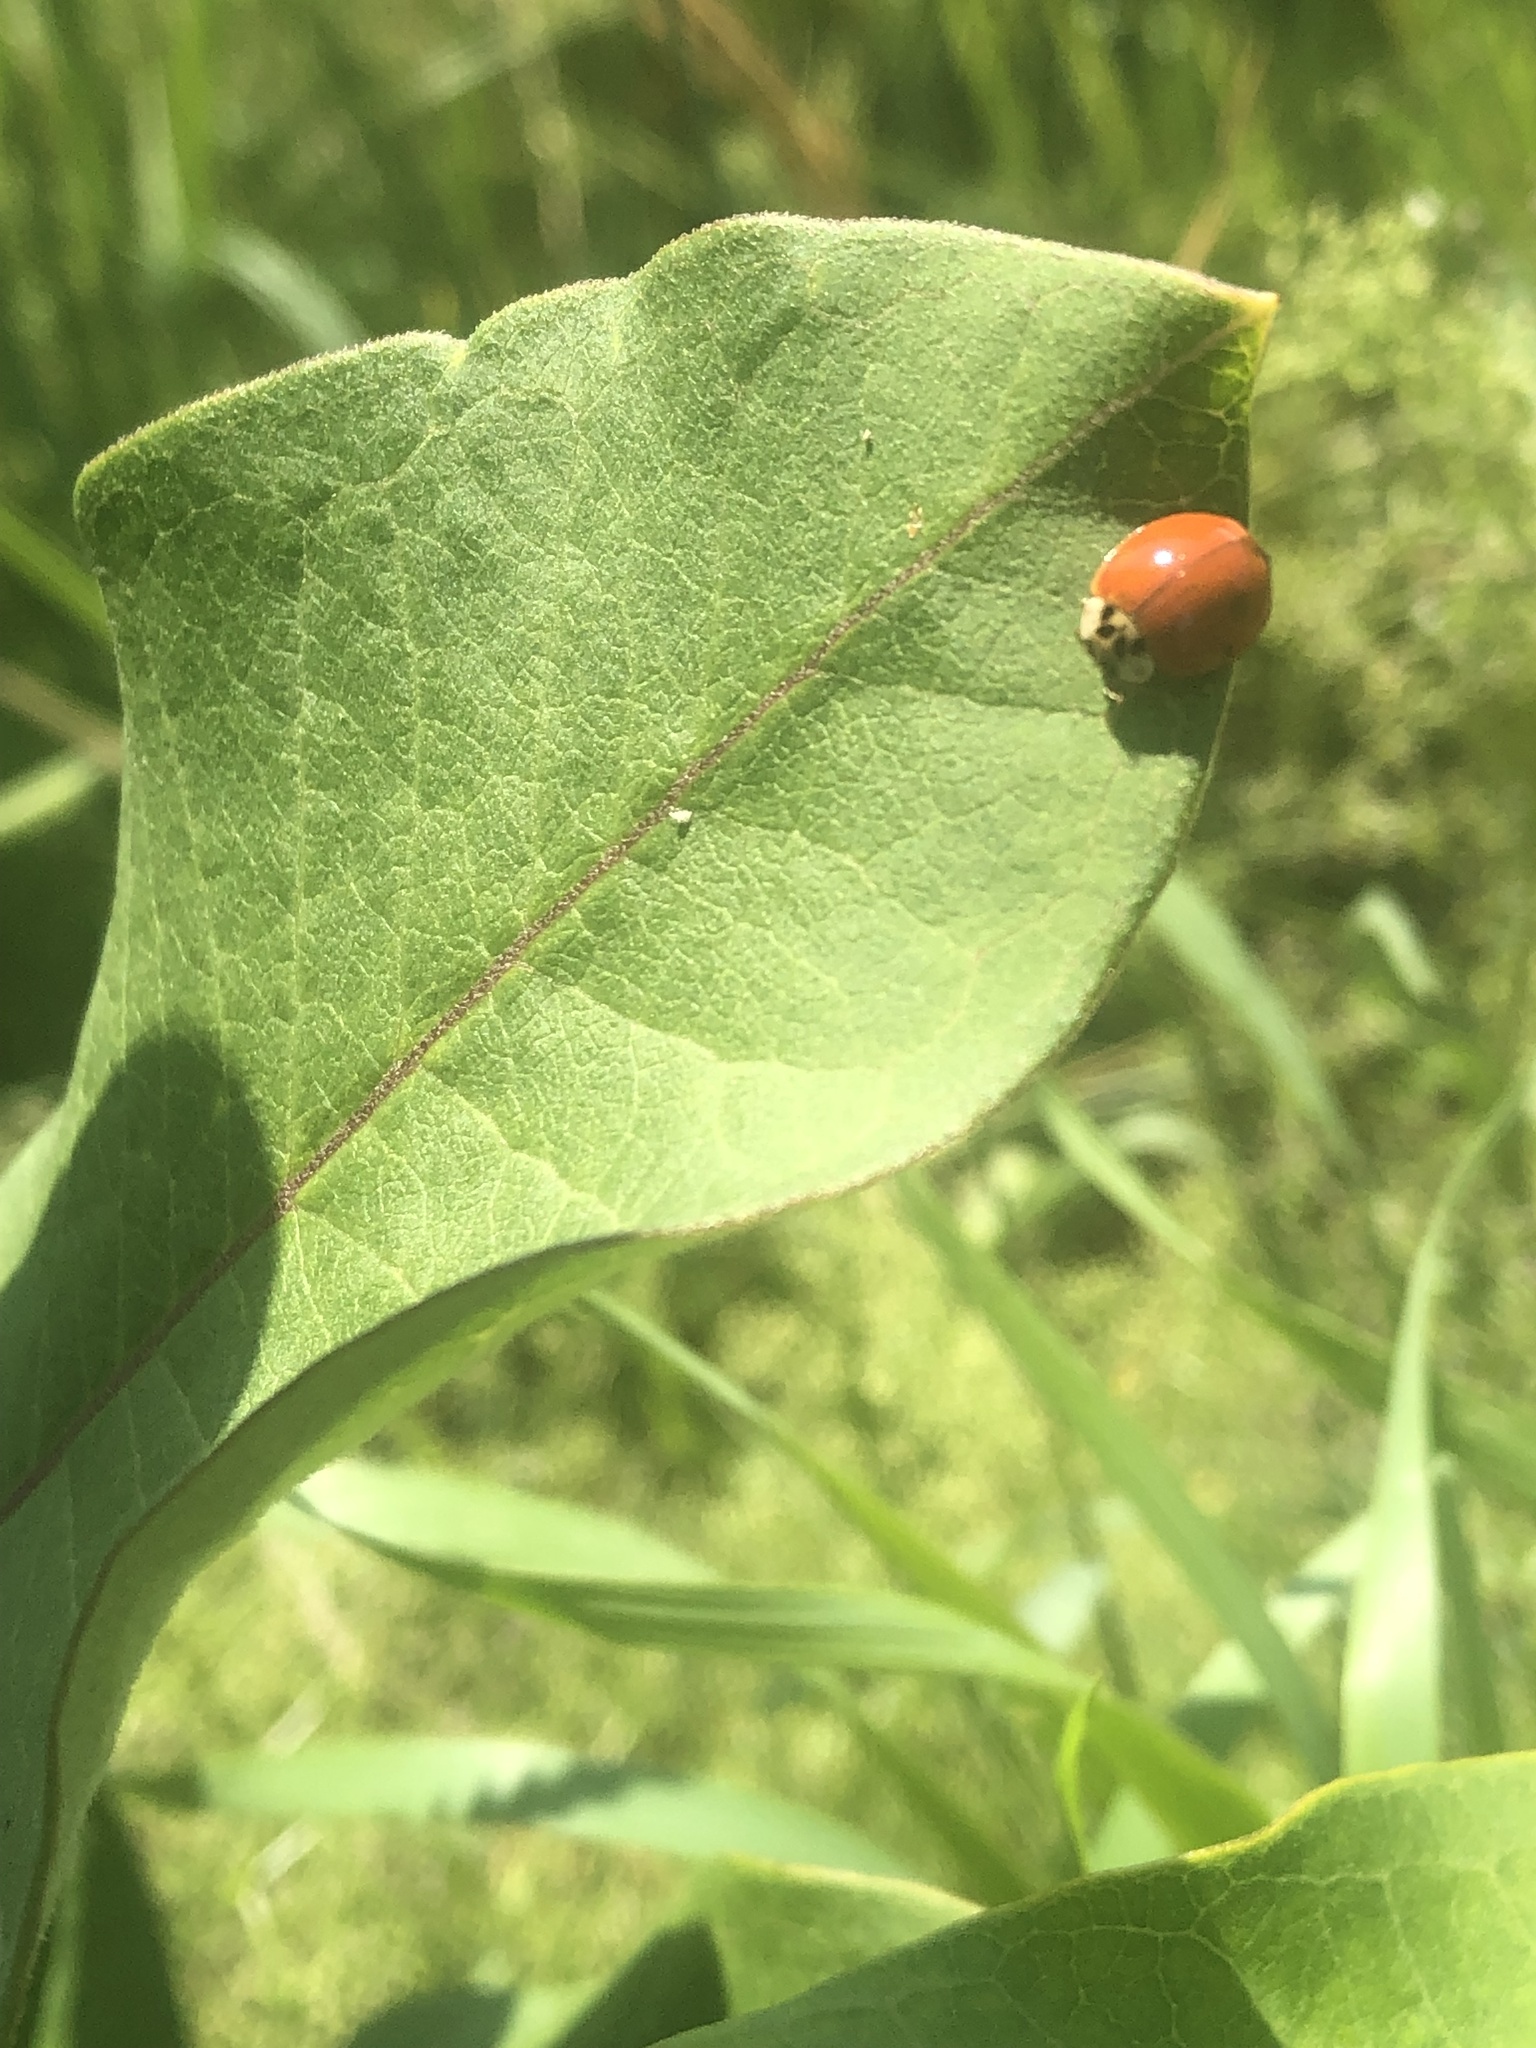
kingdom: Animalia
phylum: Arthropoda
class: Insecta
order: Coleoptera
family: Coccinellidae
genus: Harmonia
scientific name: Harmonia axyridis
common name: Harlequin ladybird
